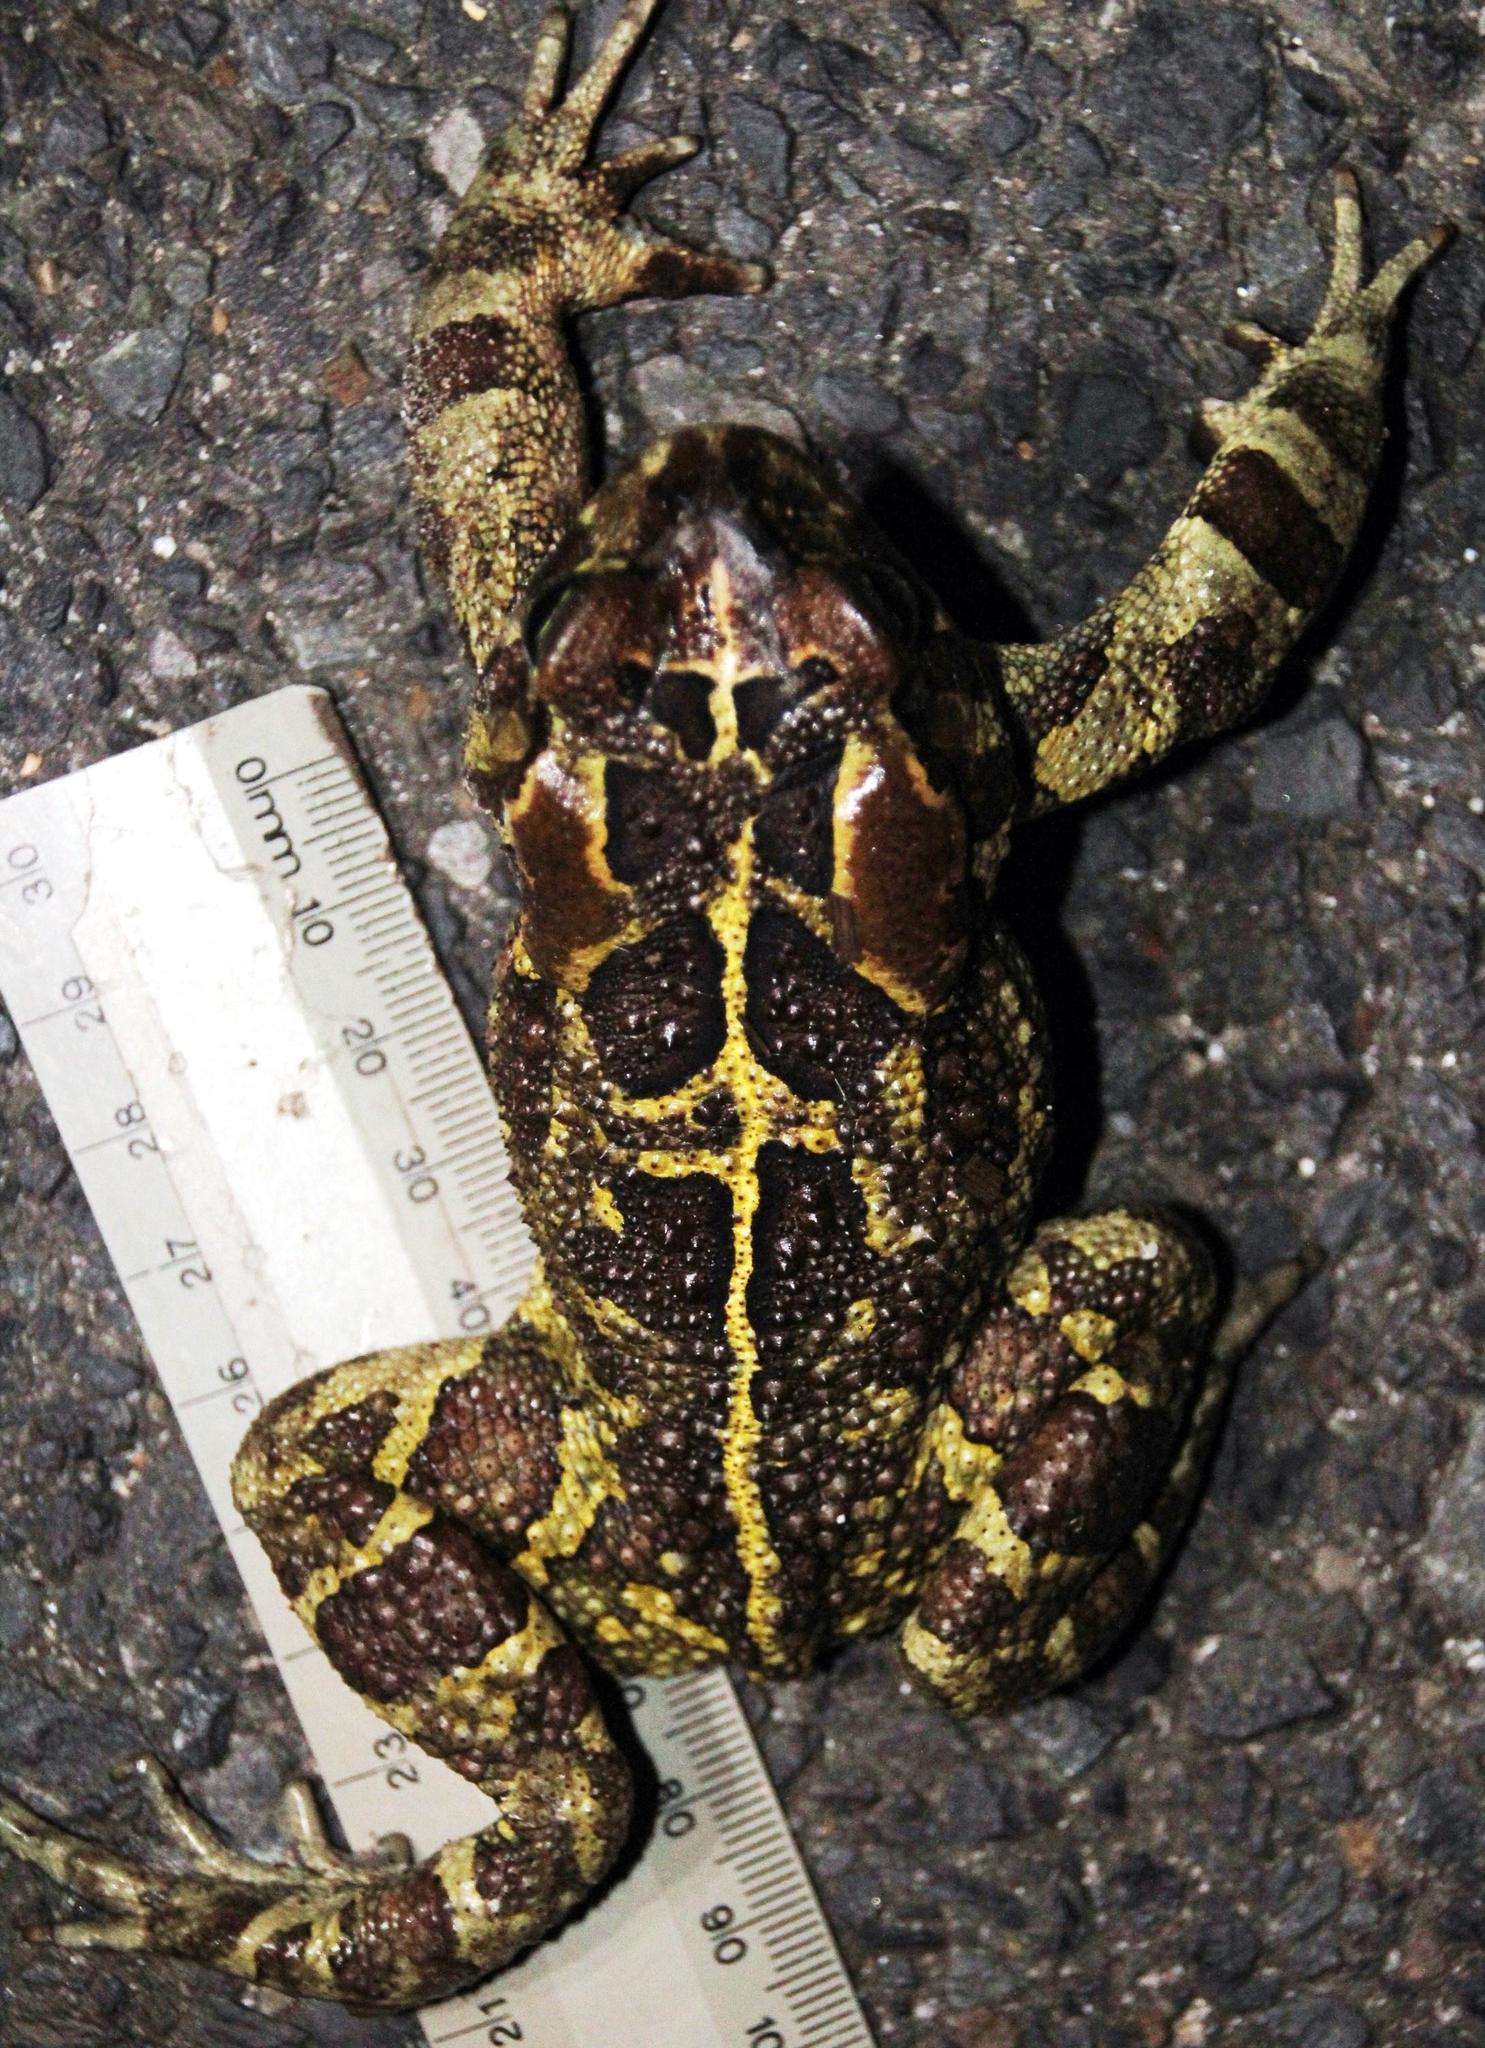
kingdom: Animalia
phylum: Chordata
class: Amphibia
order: Anura
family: Bufonidae
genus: Sclerophrys
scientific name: Sclerophrys pantherina
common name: Panther toad
